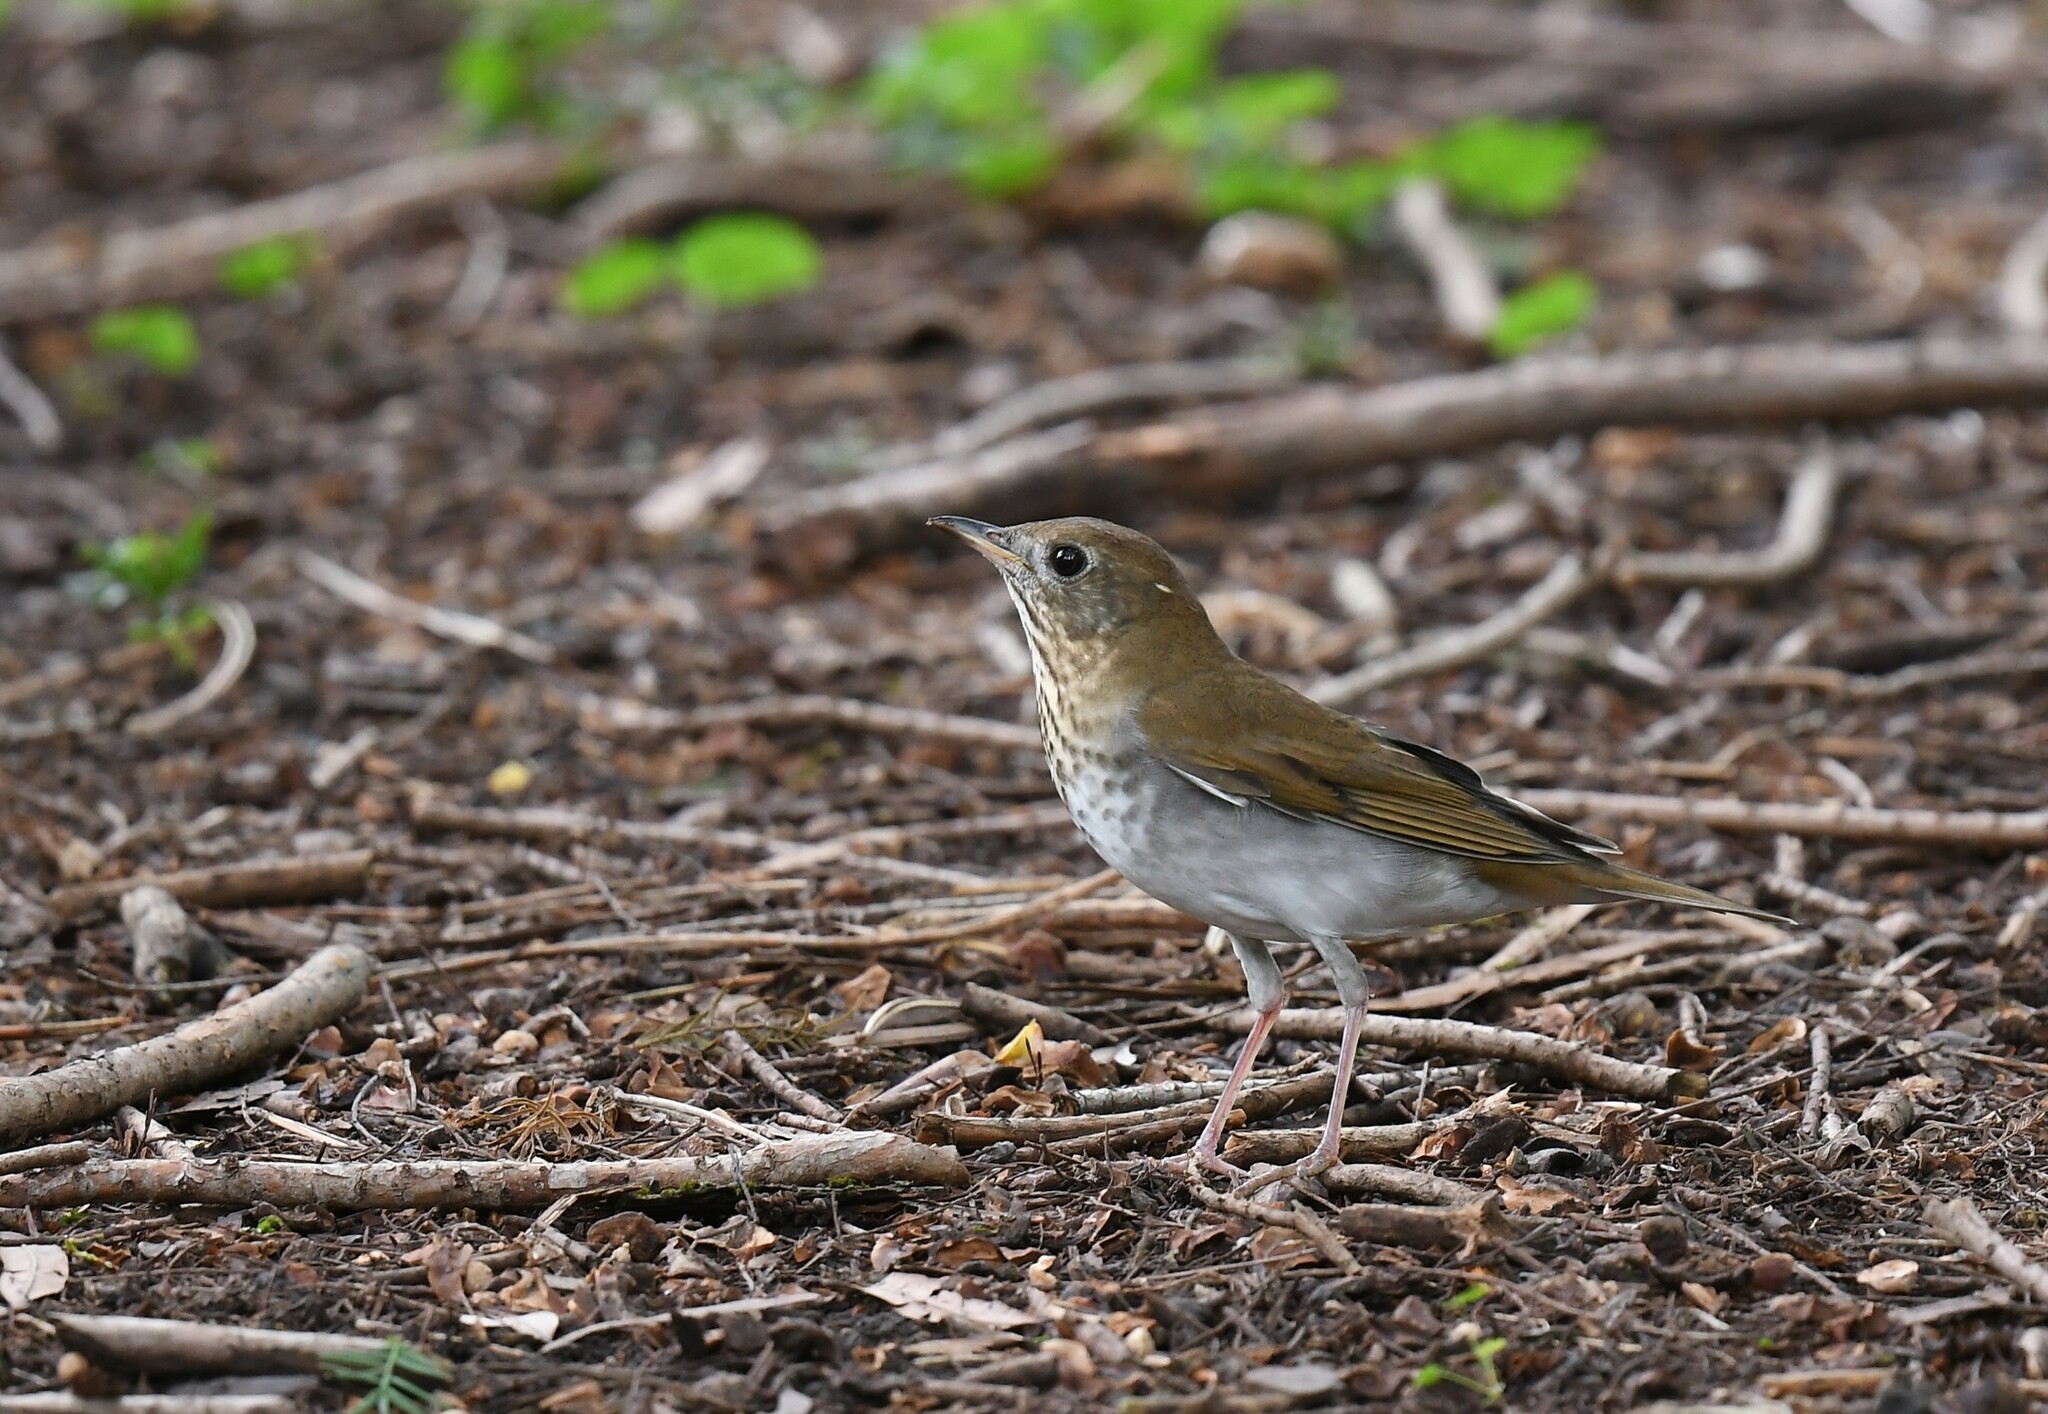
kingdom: Animalia
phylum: Chordata
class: Aves
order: Passeriformes
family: Turdidae
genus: Catharus
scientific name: Catharus fuscescens
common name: Veery
